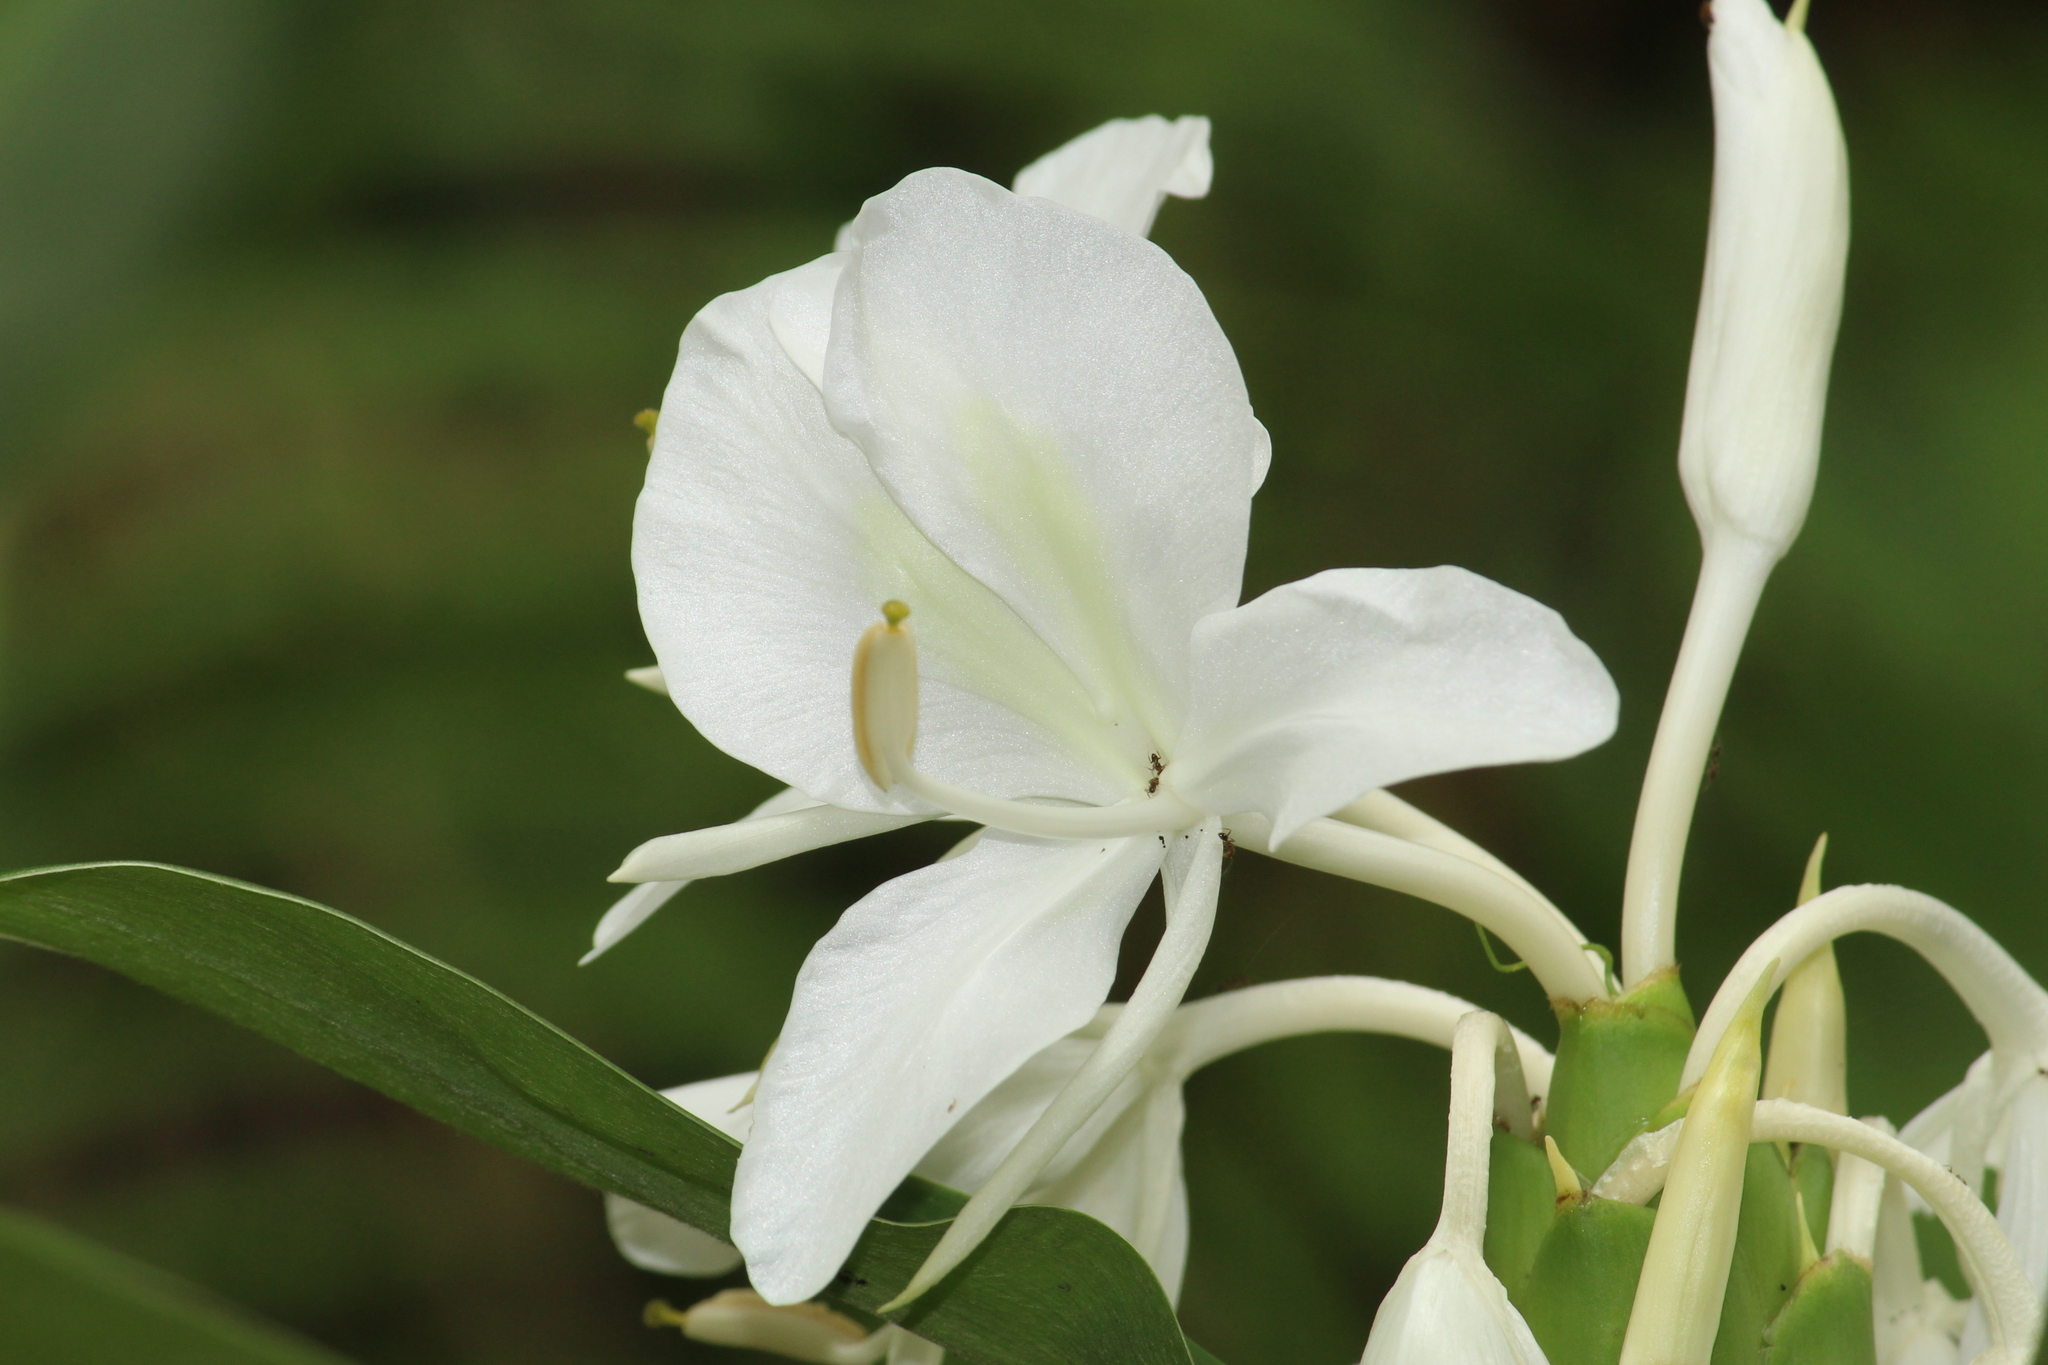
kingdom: Plantae
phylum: Tracheophyta
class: Liliopsida
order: Zingiberales
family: Zingiberaceae
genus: Hedychium
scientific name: Hedychium coronarium
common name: White garland-lily
